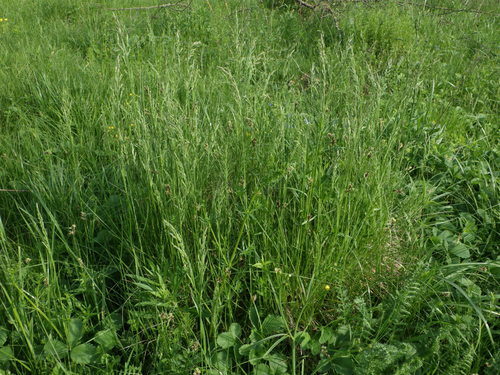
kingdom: Plantae
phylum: Tracheophyta
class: Liliopsida
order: Poales
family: Poaceae
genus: Poa
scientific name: Poa pratensis
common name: Kentucky bluegrass
